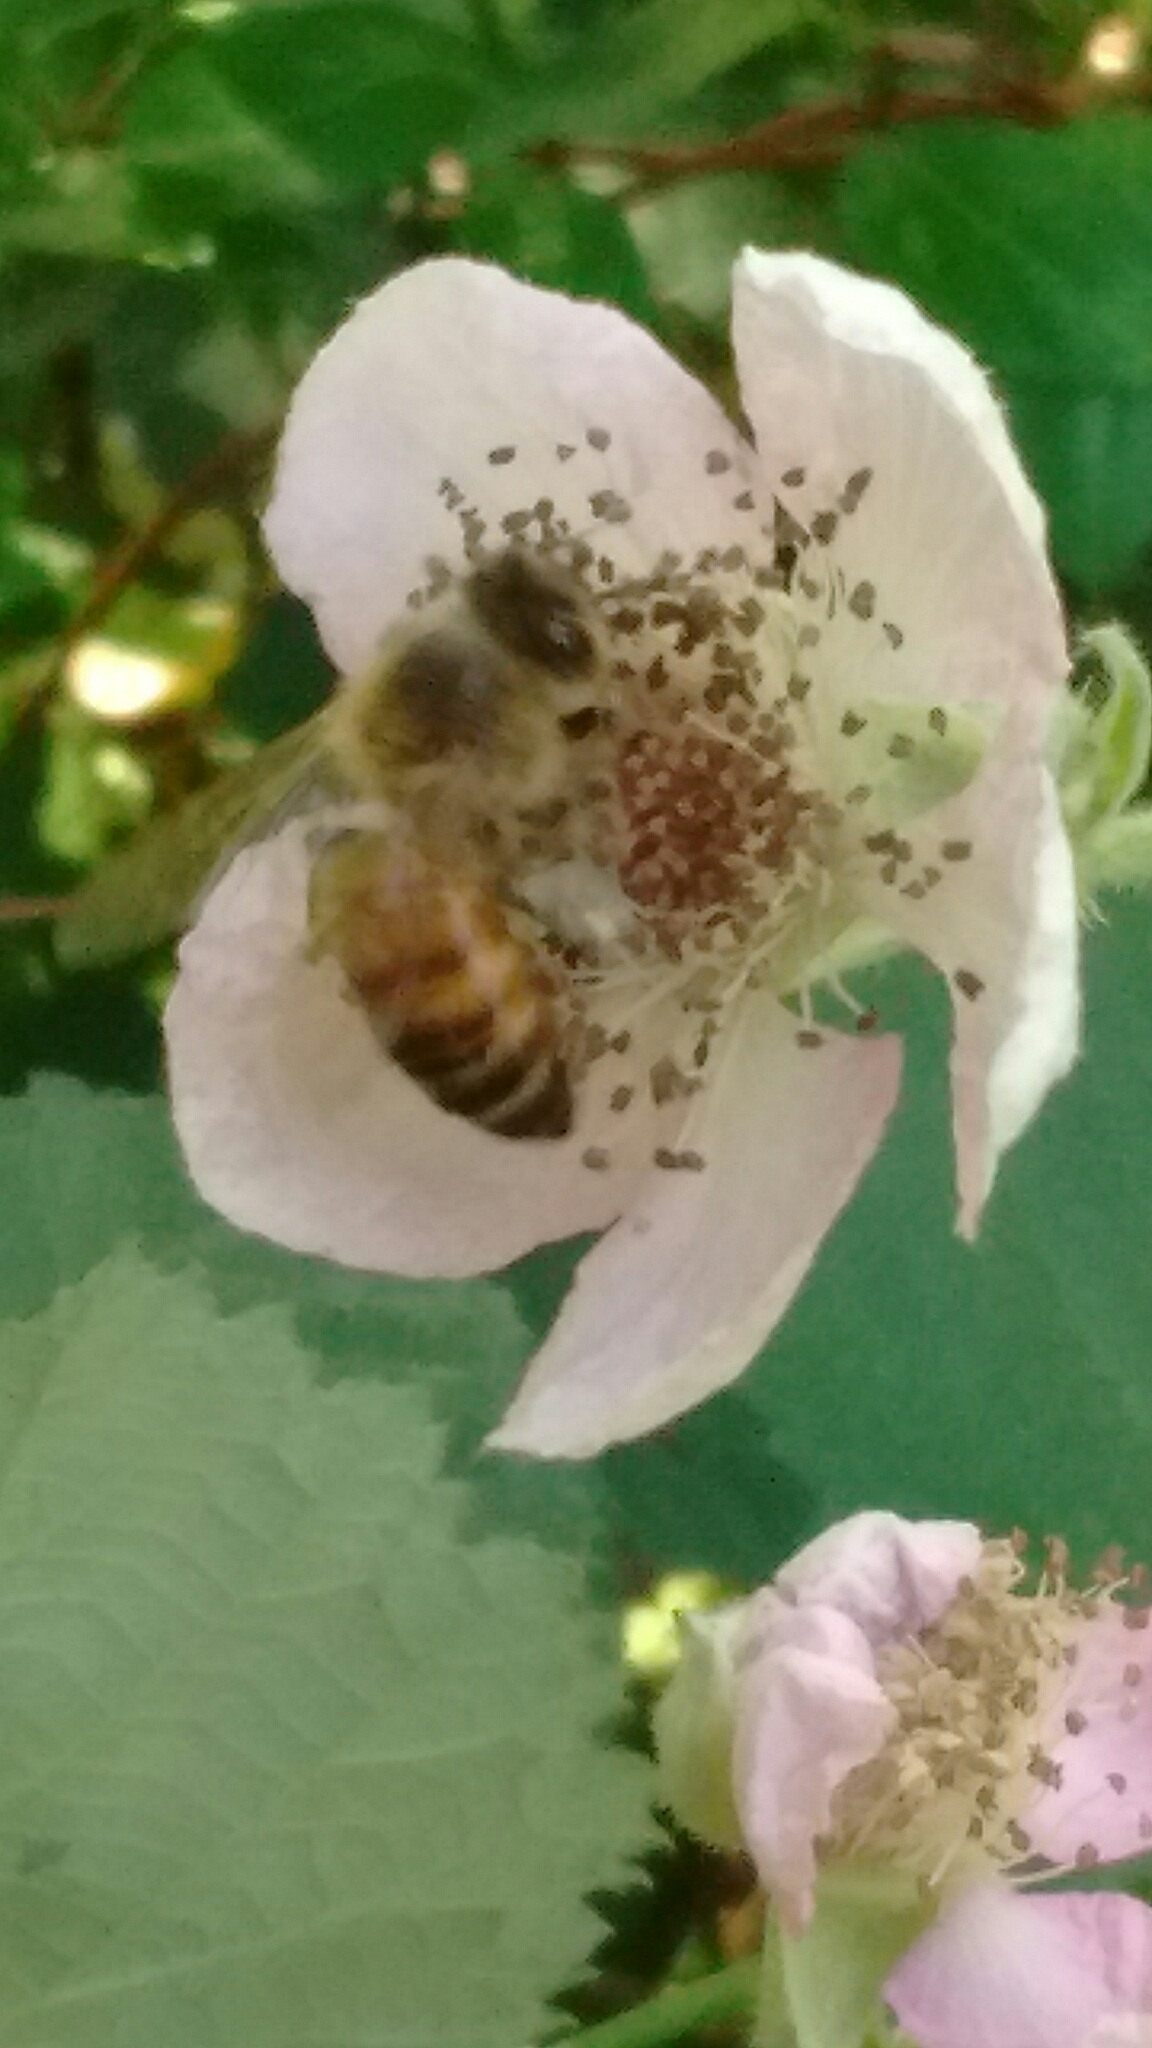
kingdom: Animalia
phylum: Arthropoda
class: Insecta
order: Hymenoptera
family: Apidae
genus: Apis
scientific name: Apis mellifera
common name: Honey bee
